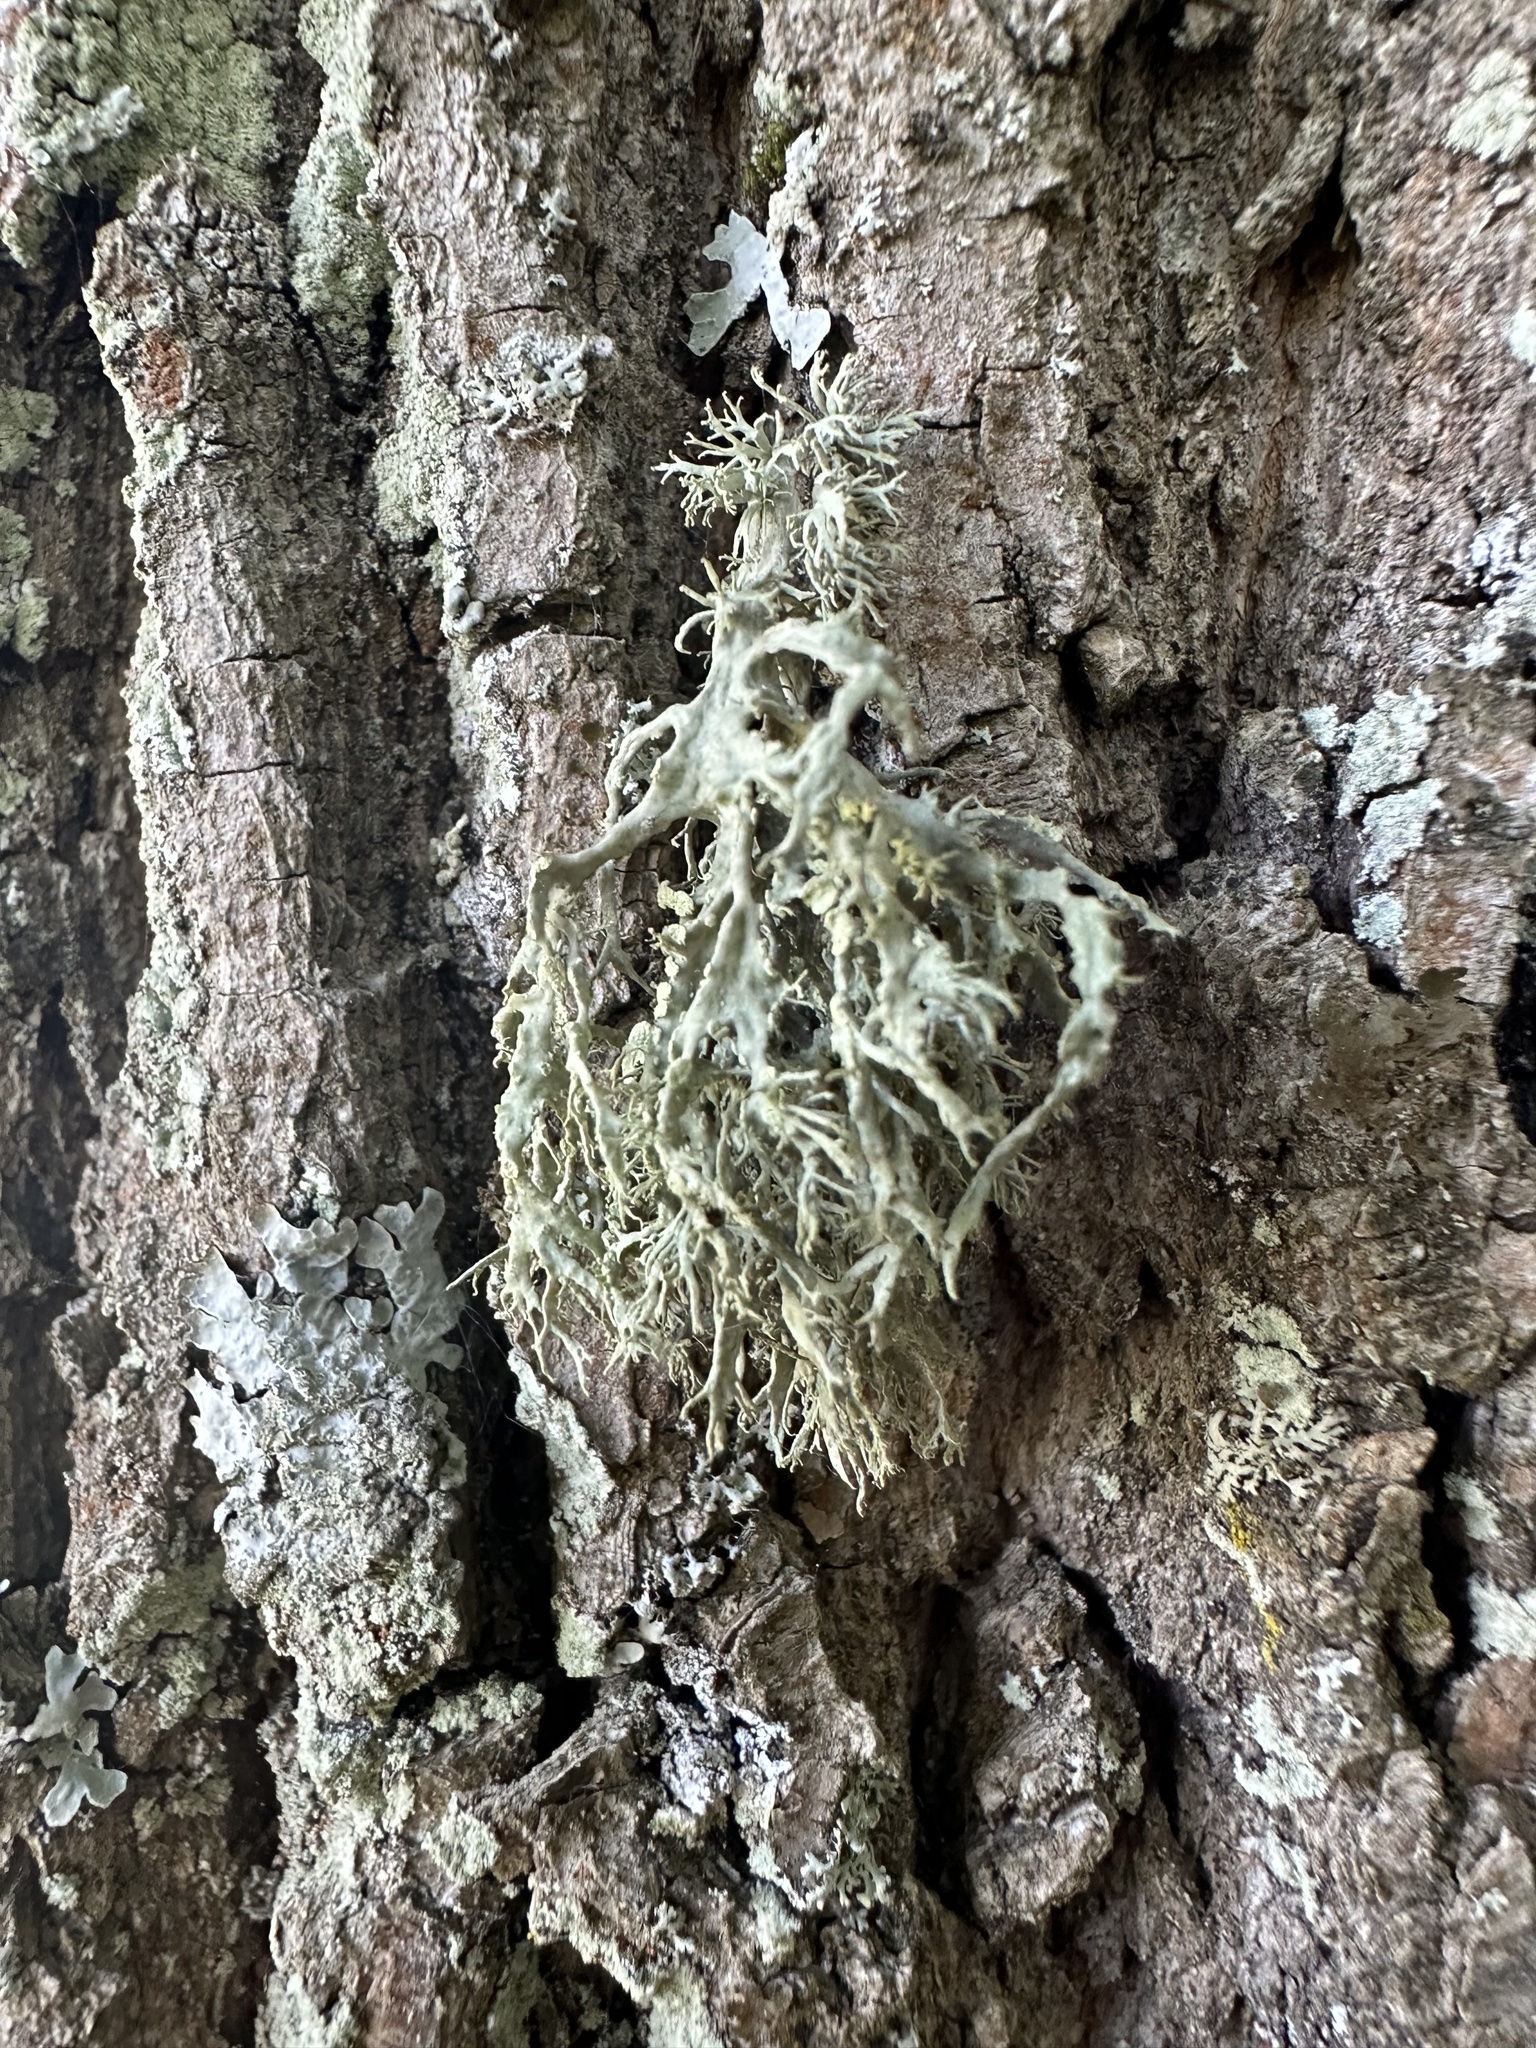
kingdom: Fungi
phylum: Ascomycota
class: Lecanoromycetes
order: Lecanorales
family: Ramalinaceae
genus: Ramalina
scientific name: Ramalina farinacea
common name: Farinose cartilage lichen
